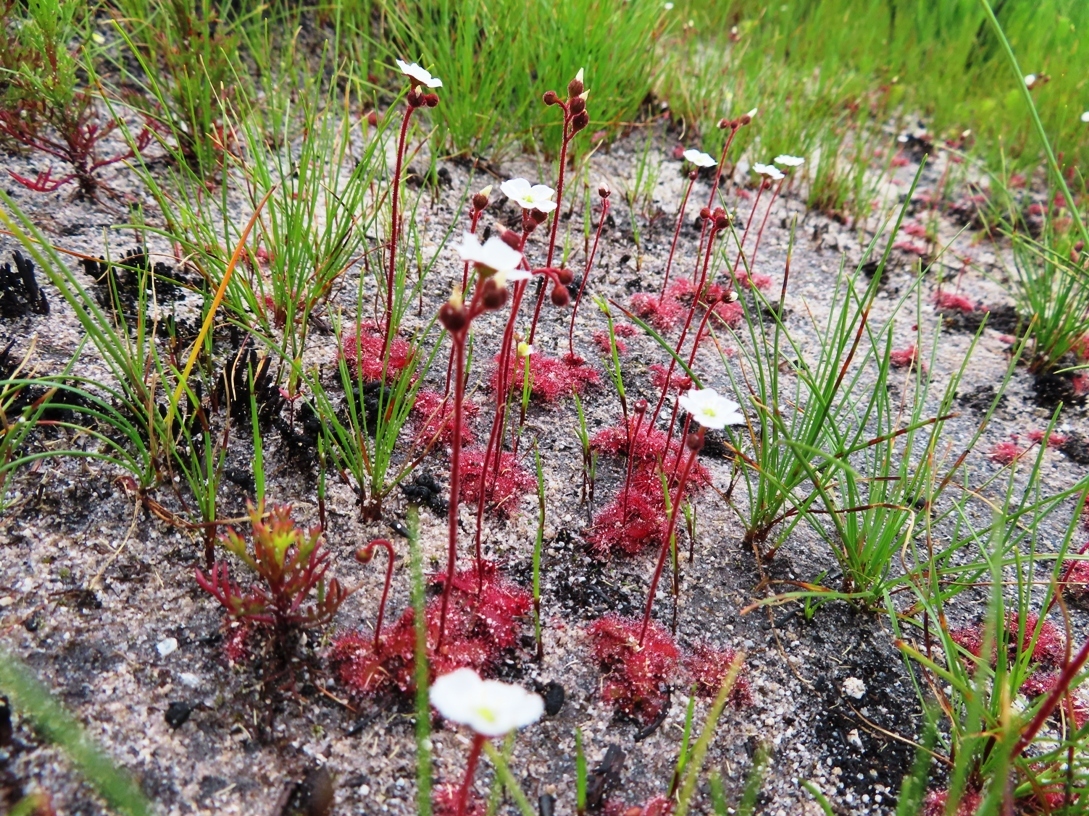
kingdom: Plantae
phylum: Tracheophyta
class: Magnoliopsida
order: Caryophyllales
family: Droseraceae
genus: Drosera
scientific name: Drosera trinervia
